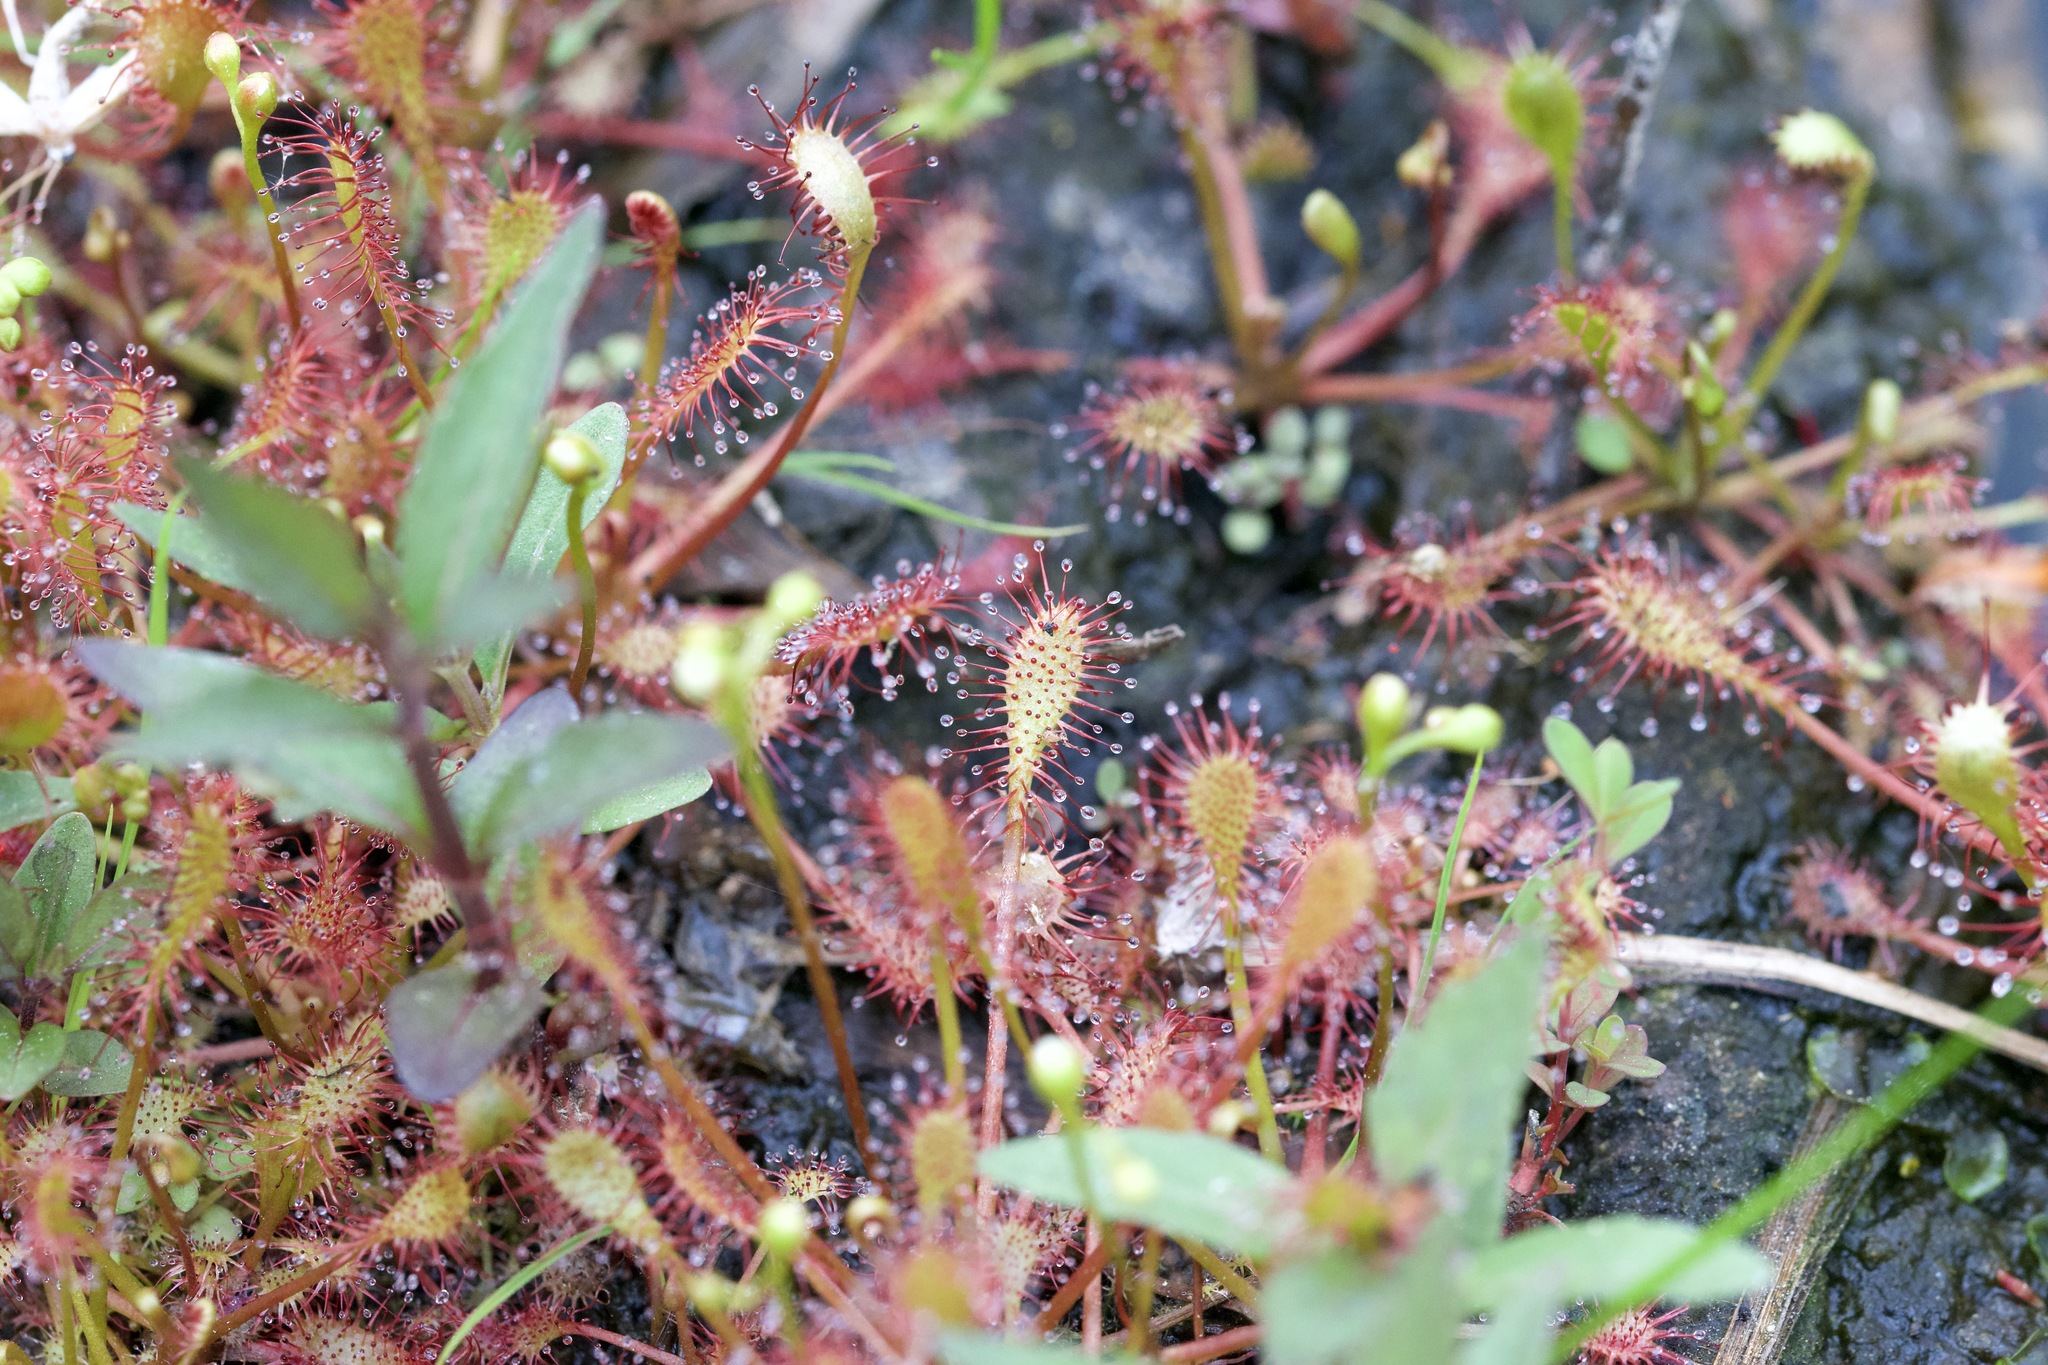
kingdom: Plantae
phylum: Tracheophyta
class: Magnoliopsida
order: Caryophyllales
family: Droseraceae
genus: Drosera
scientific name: Drosera intermedia
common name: Oblong-leaved sundew
